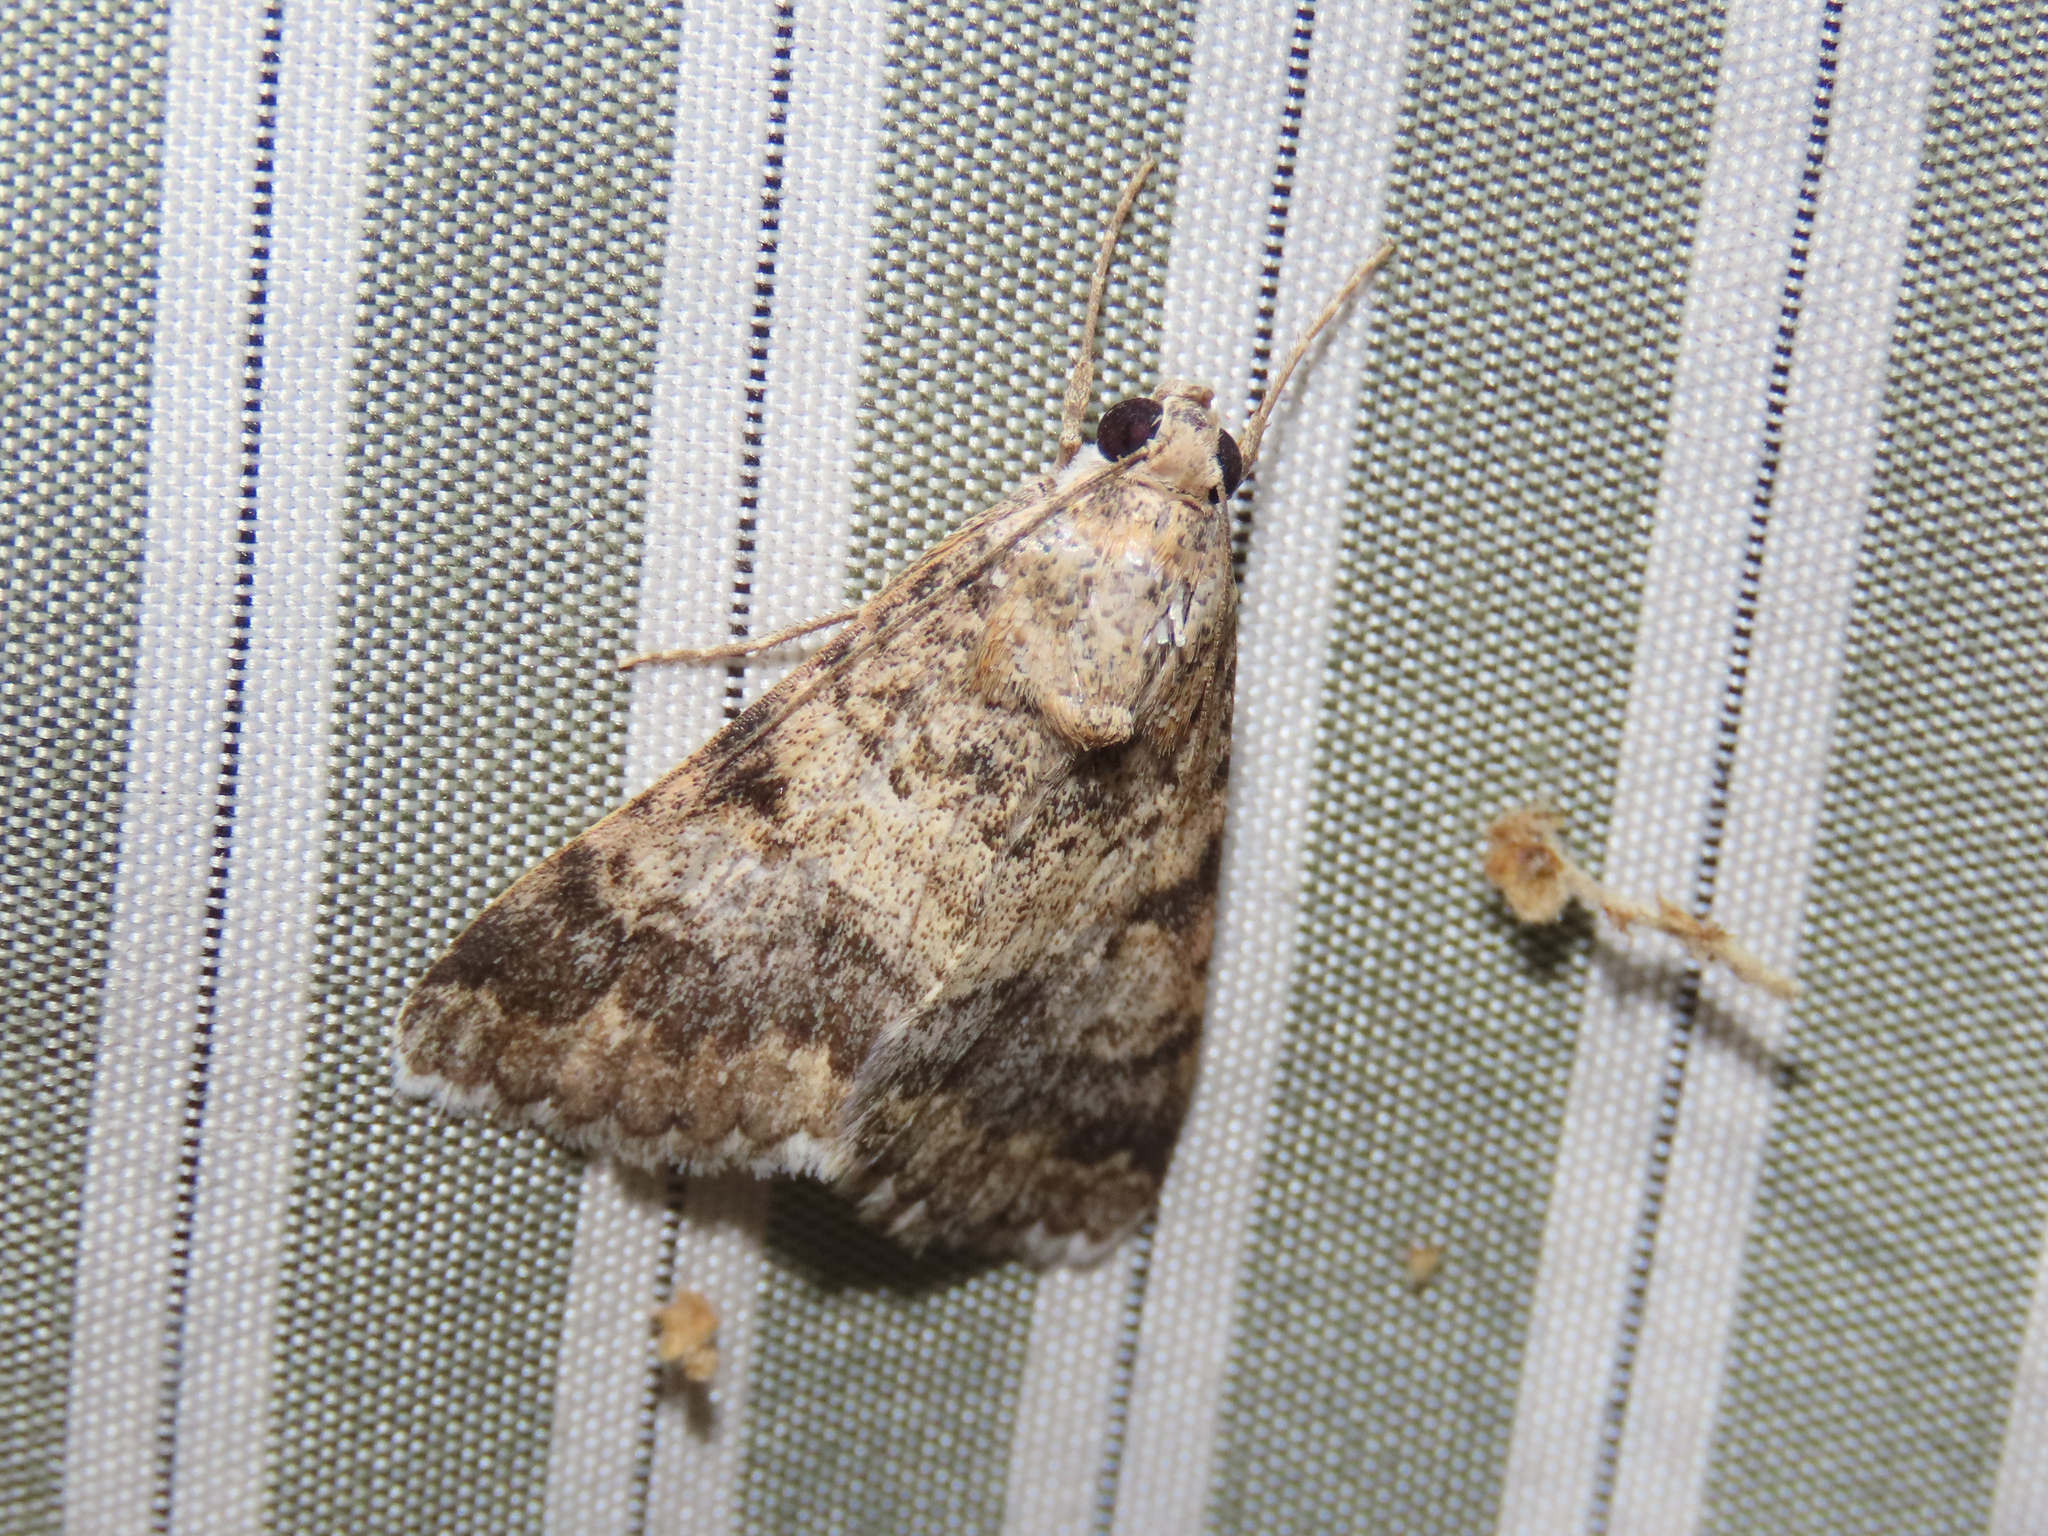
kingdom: Animalia
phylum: Arthropoda
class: Insecta
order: Lepidoptera
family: Erebidae
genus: Melipotis
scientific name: Melipotis jucunda
